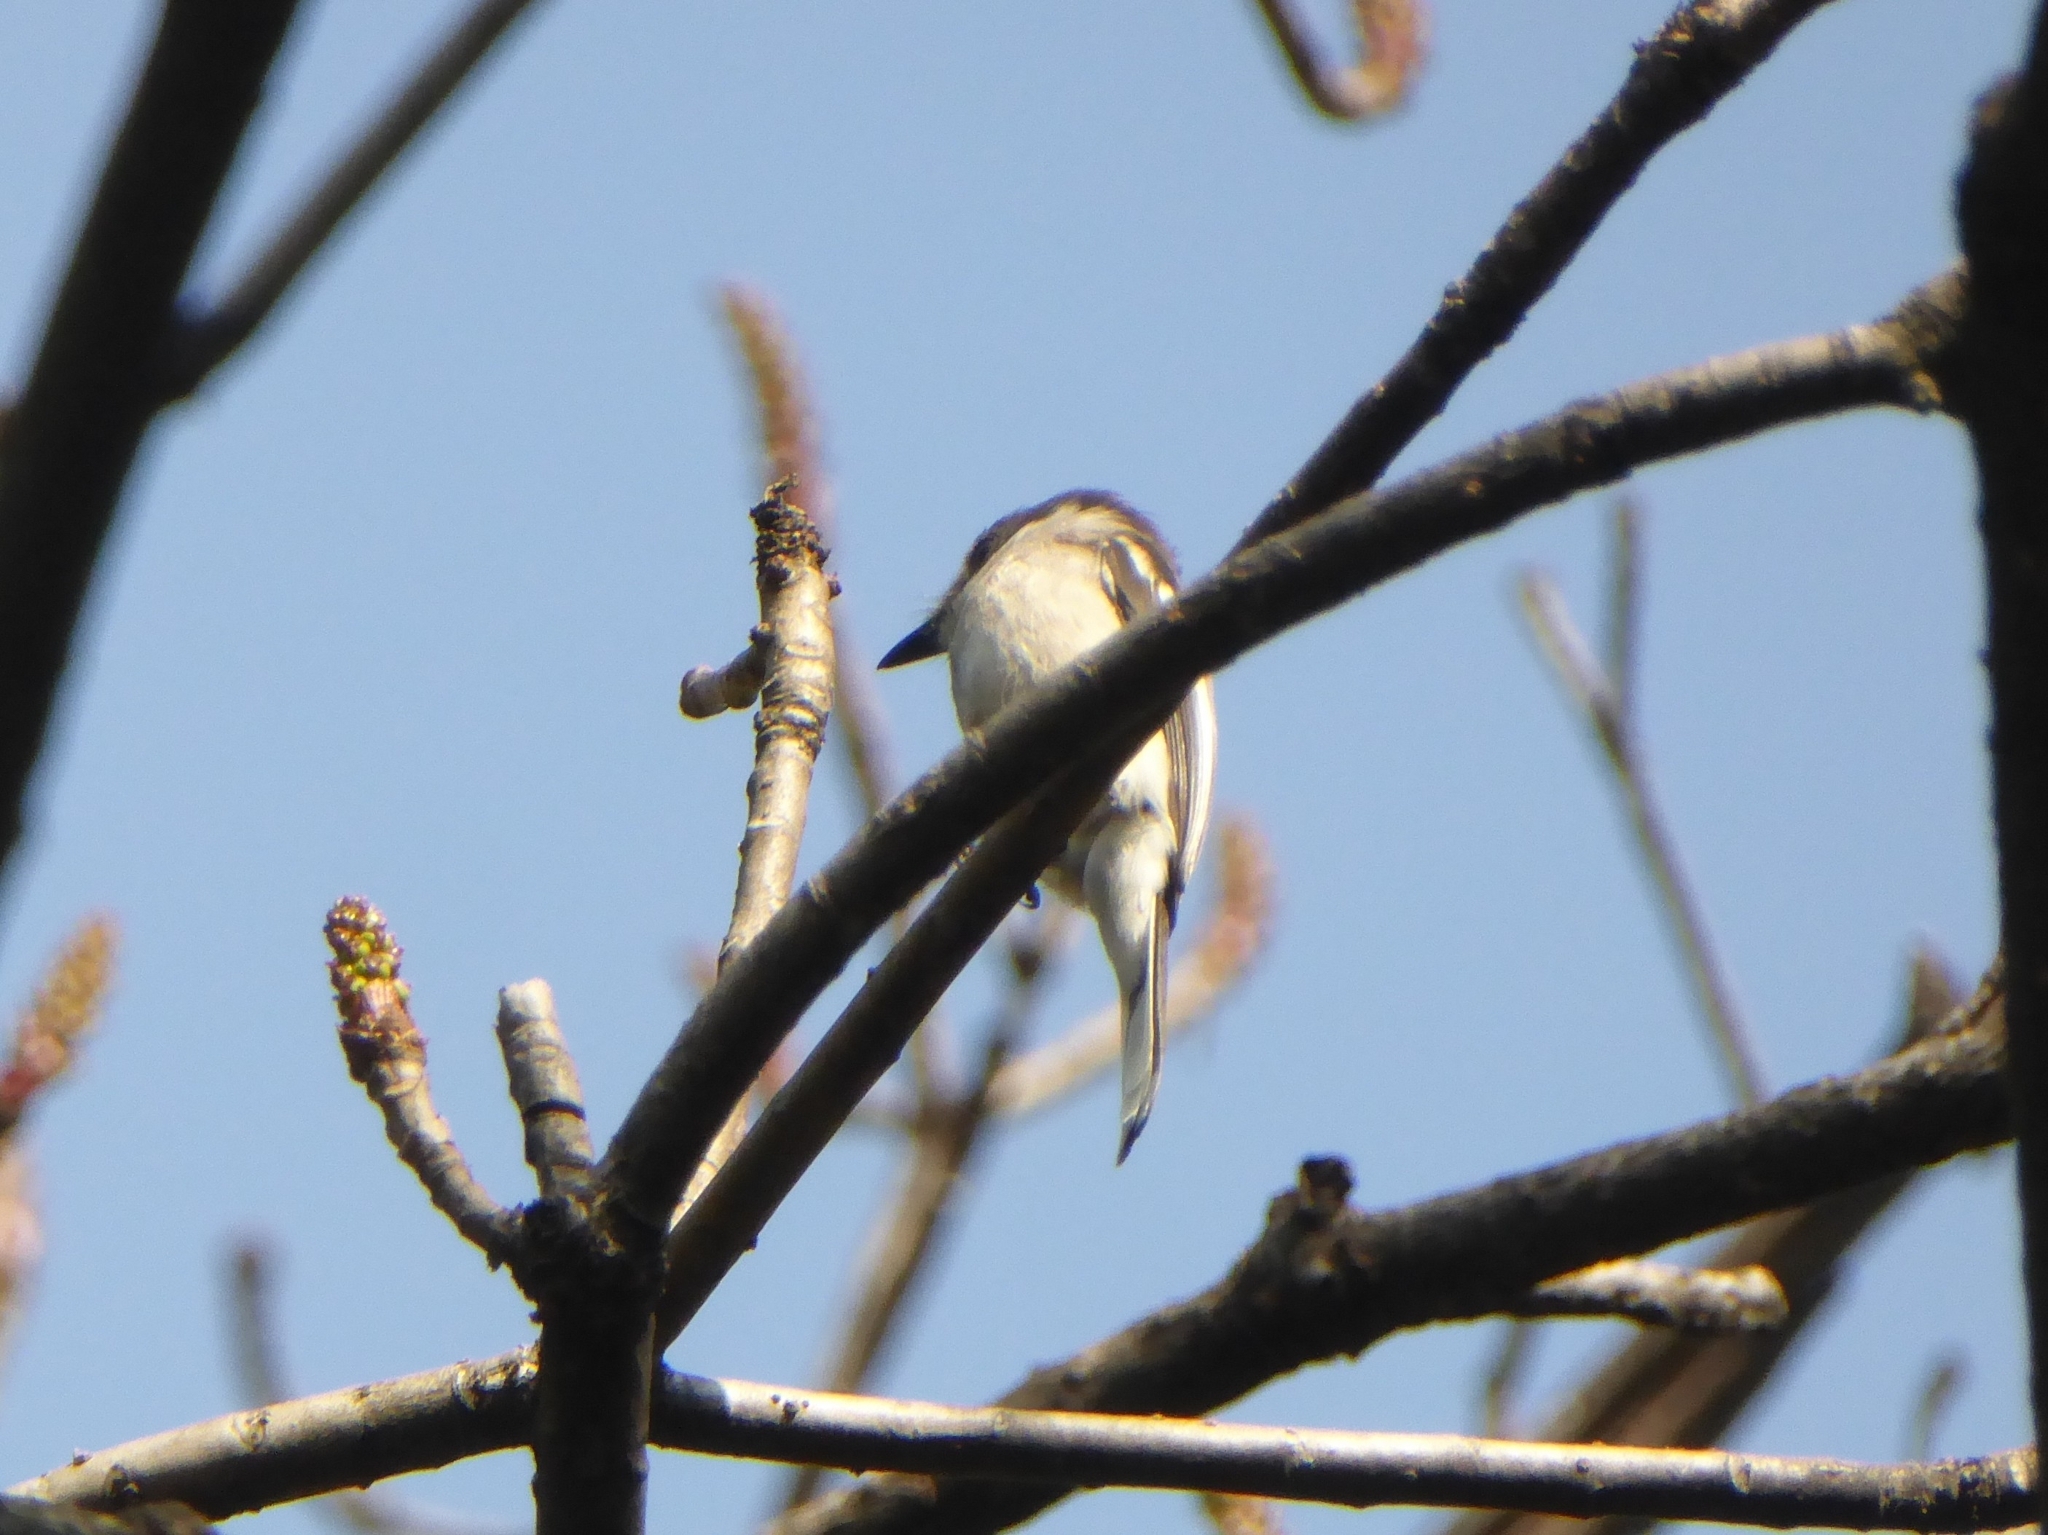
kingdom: Animalia
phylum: Chordata
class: Aves
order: Passeriformes
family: Tephrodornithidae
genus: Hemipus
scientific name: Hemipus picatus
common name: Bar-winged flycatcher-shrike
